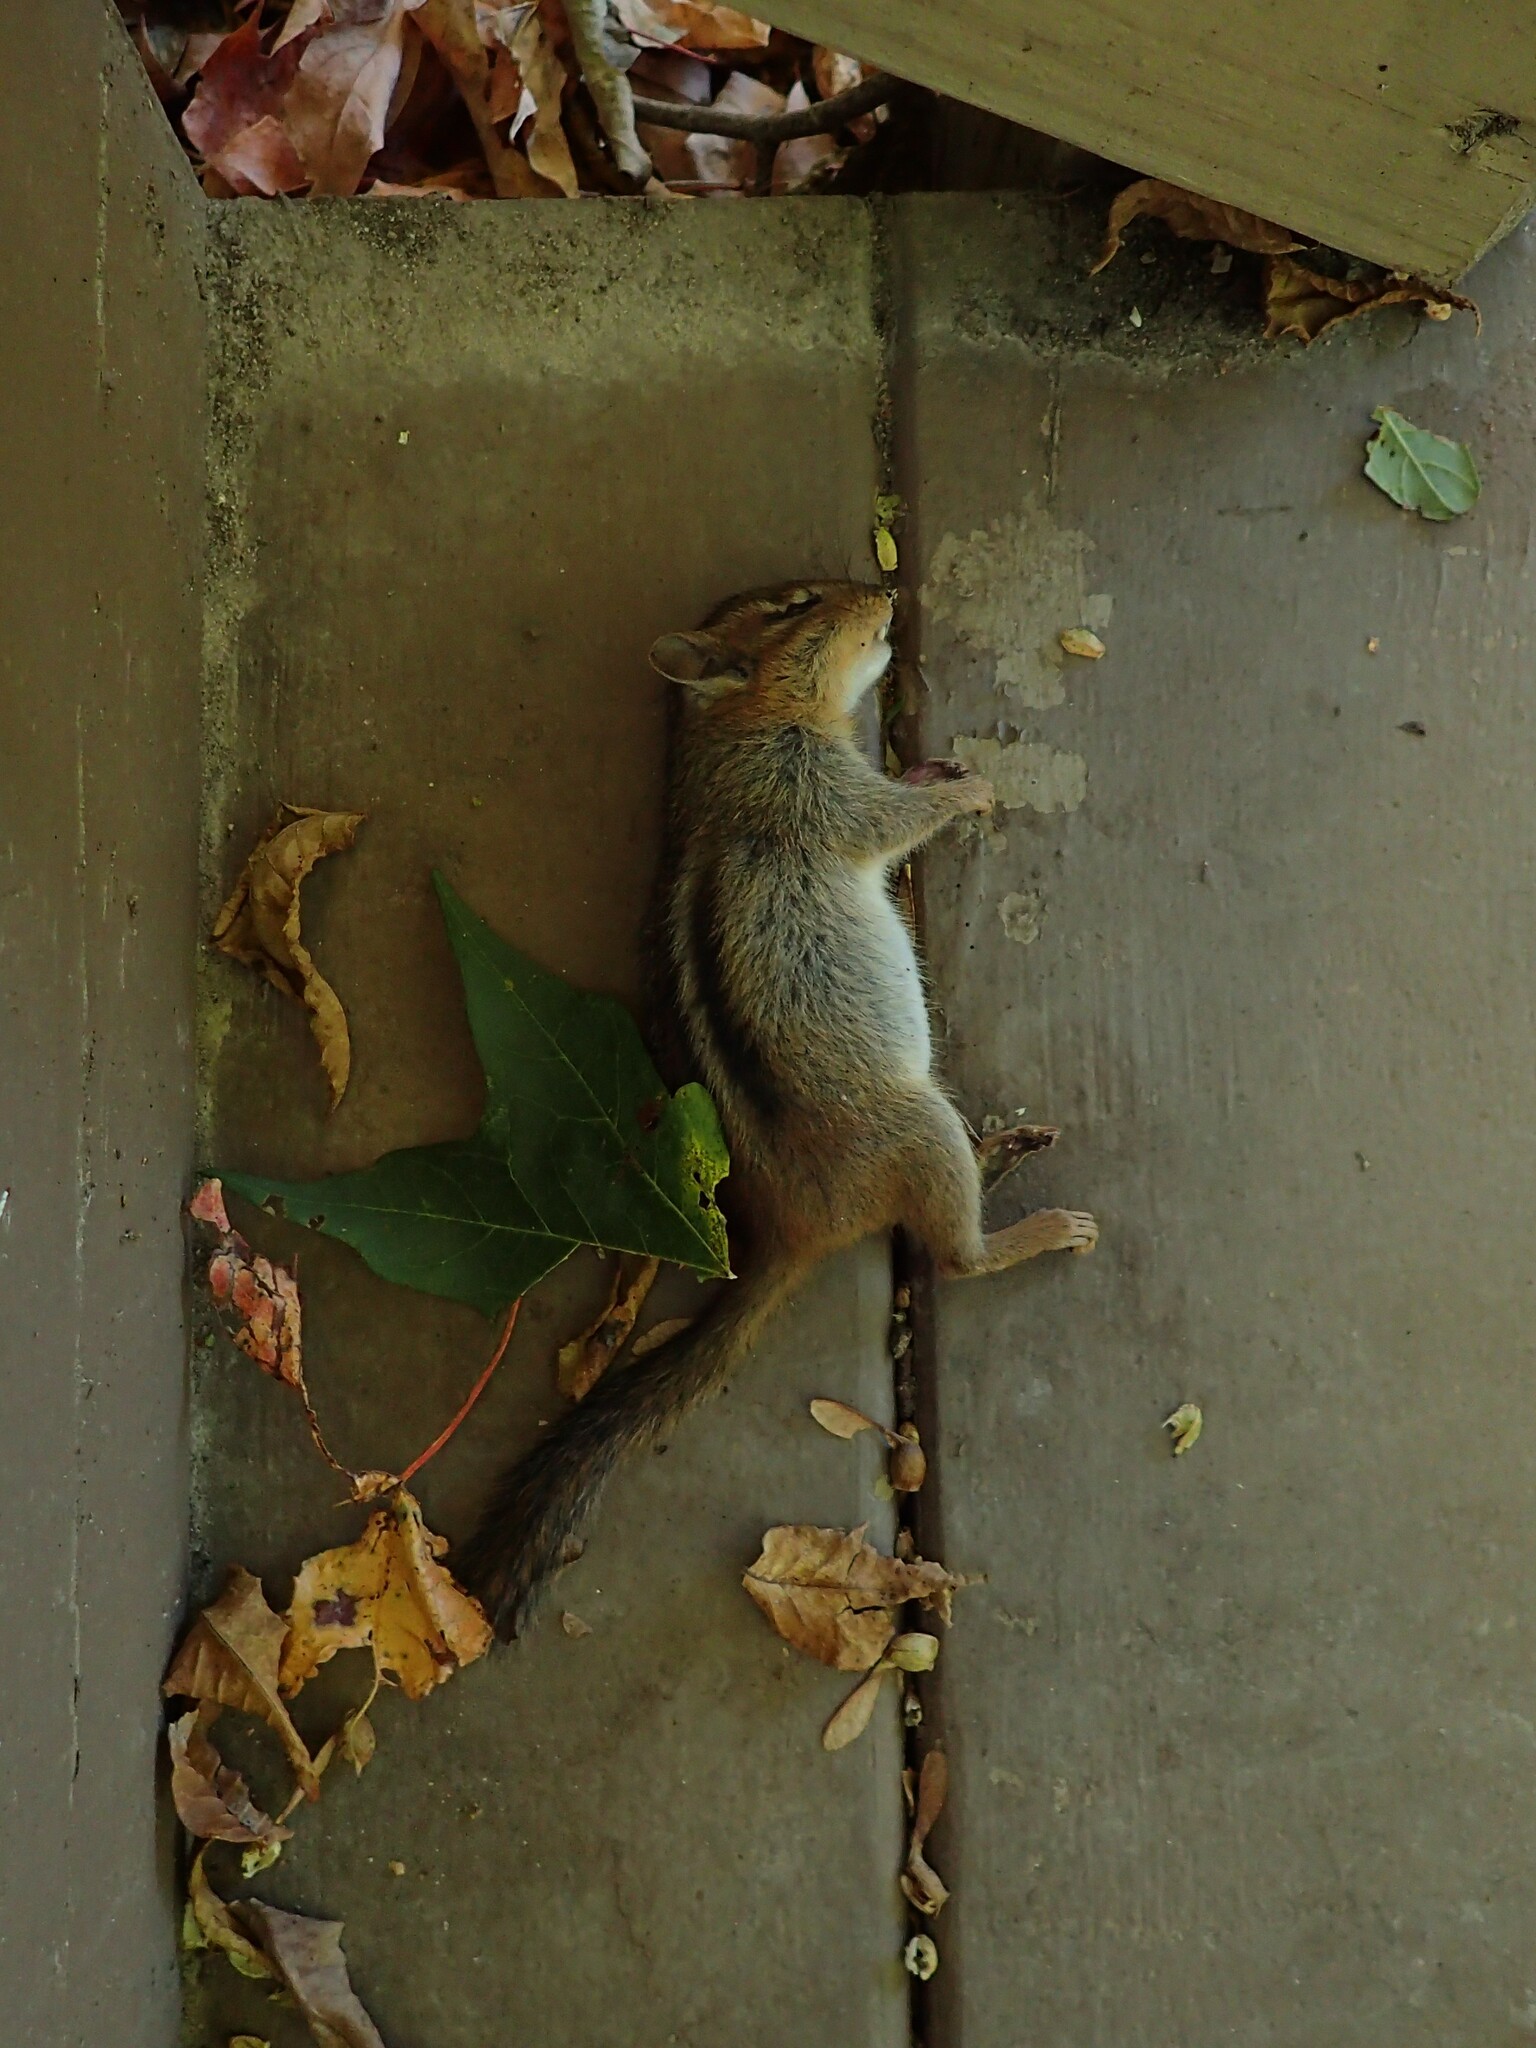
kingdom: Animalia
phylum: Chordata
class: Mammalia
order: Rodentia
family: Sciuridae
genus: Tamias
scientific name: Tamias striatus
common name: Eastern chipmunk
